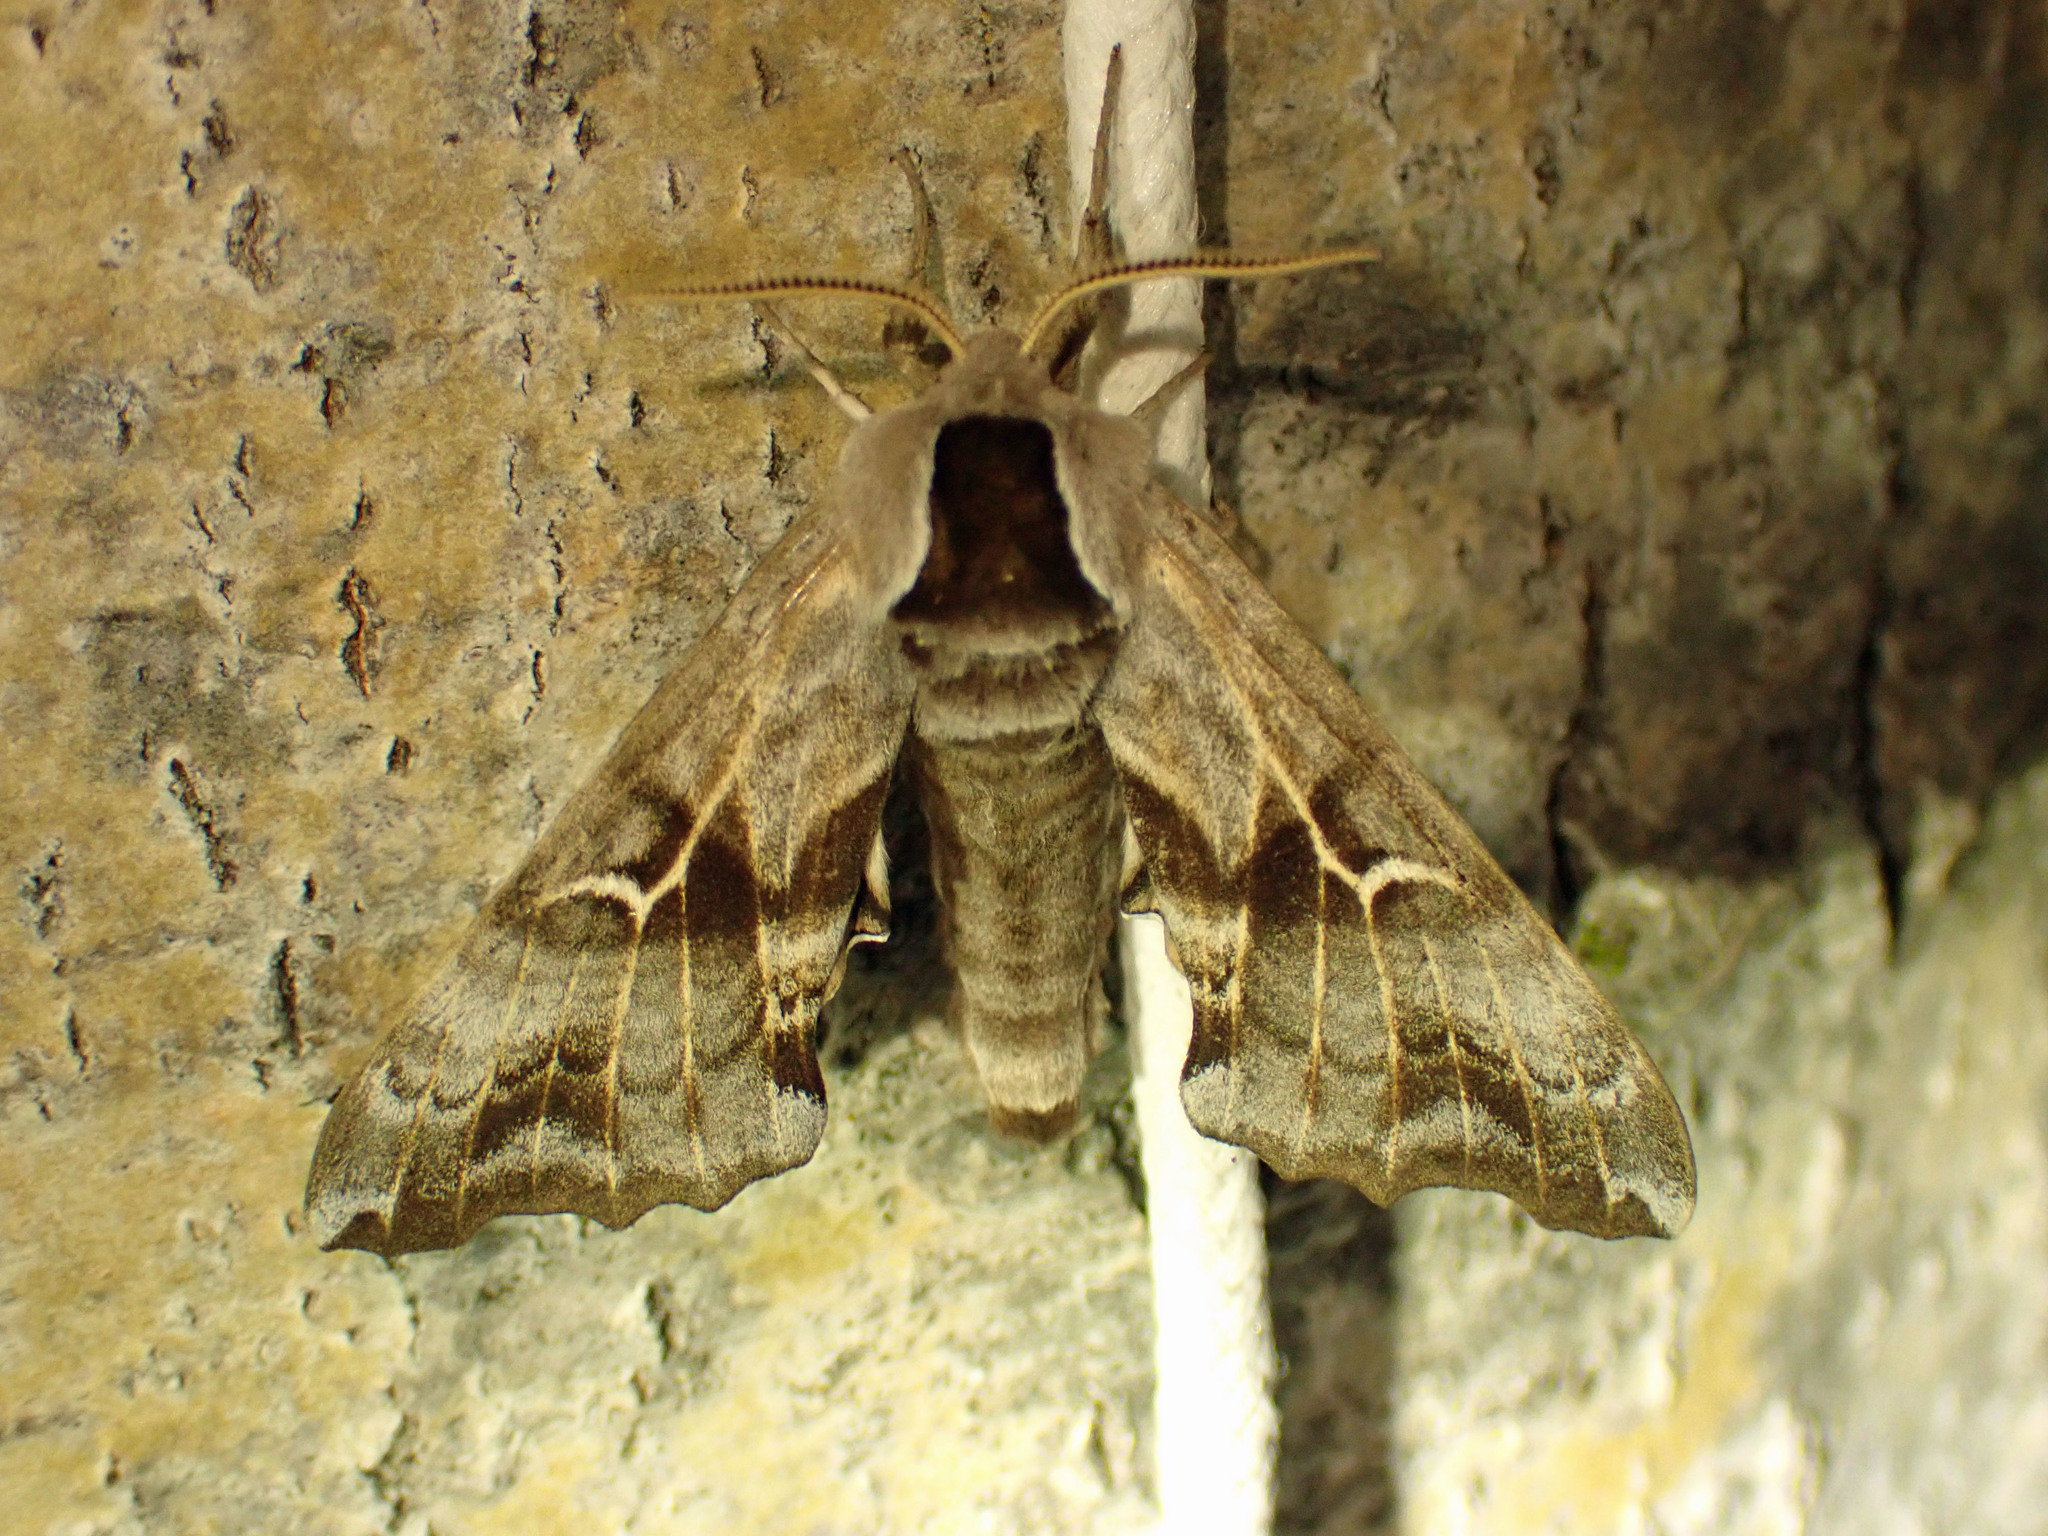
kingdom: Animalia
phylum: Arthropoda
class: Insecta
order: Lepidoptera
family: Sphingidae
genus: Smerinthus
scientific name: Smerinthus cerisyi
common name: Cerisy's sphinx moth
